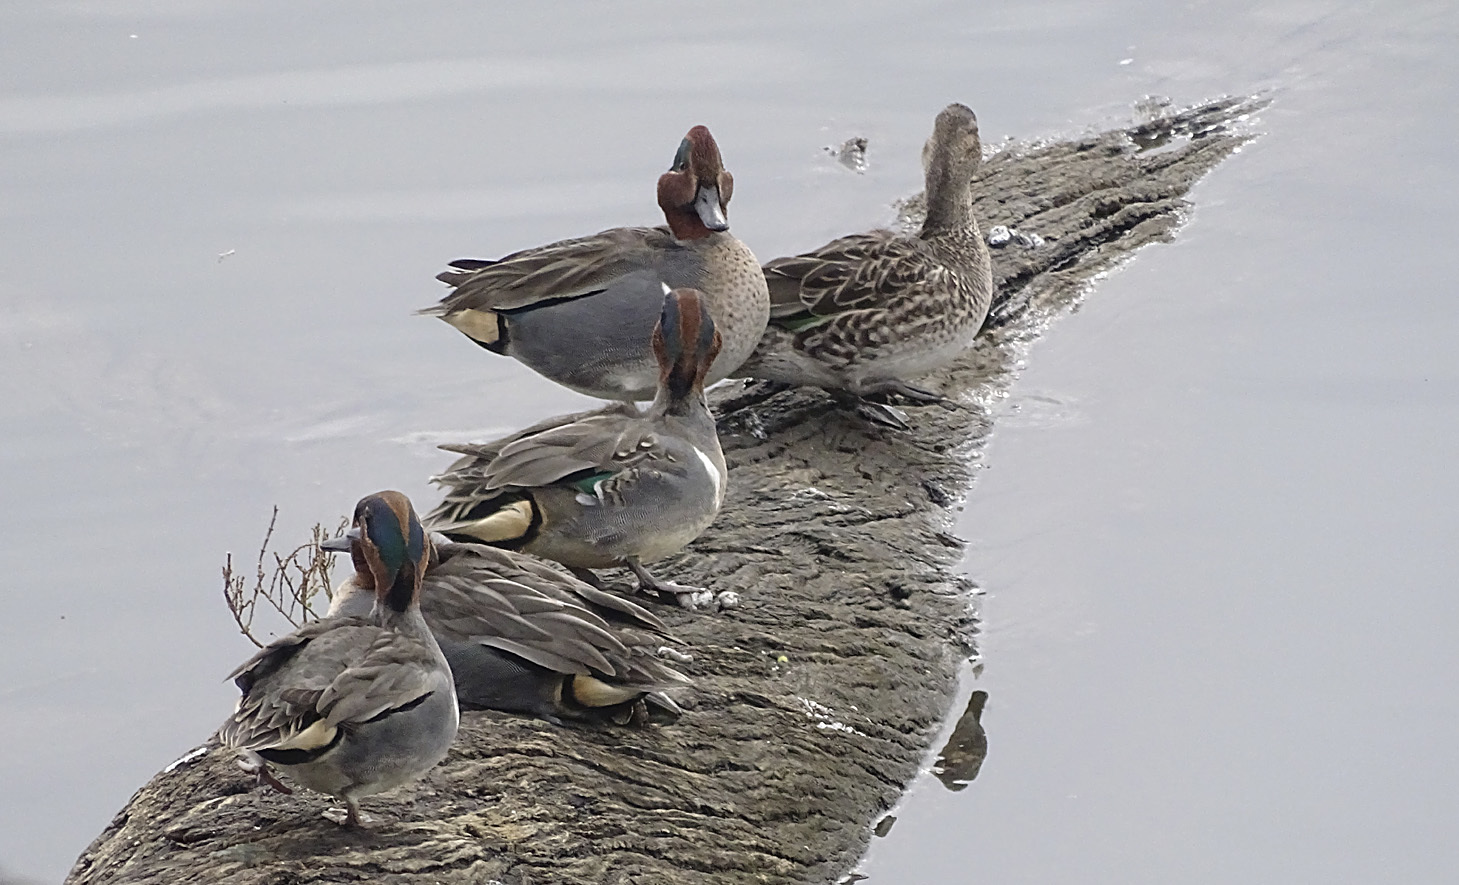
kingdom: Animalia
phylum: Chordata
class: Aves
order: Anseriformes
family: Anatidae
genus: Anas
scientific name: Anas crecca
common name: Eurasian teal
